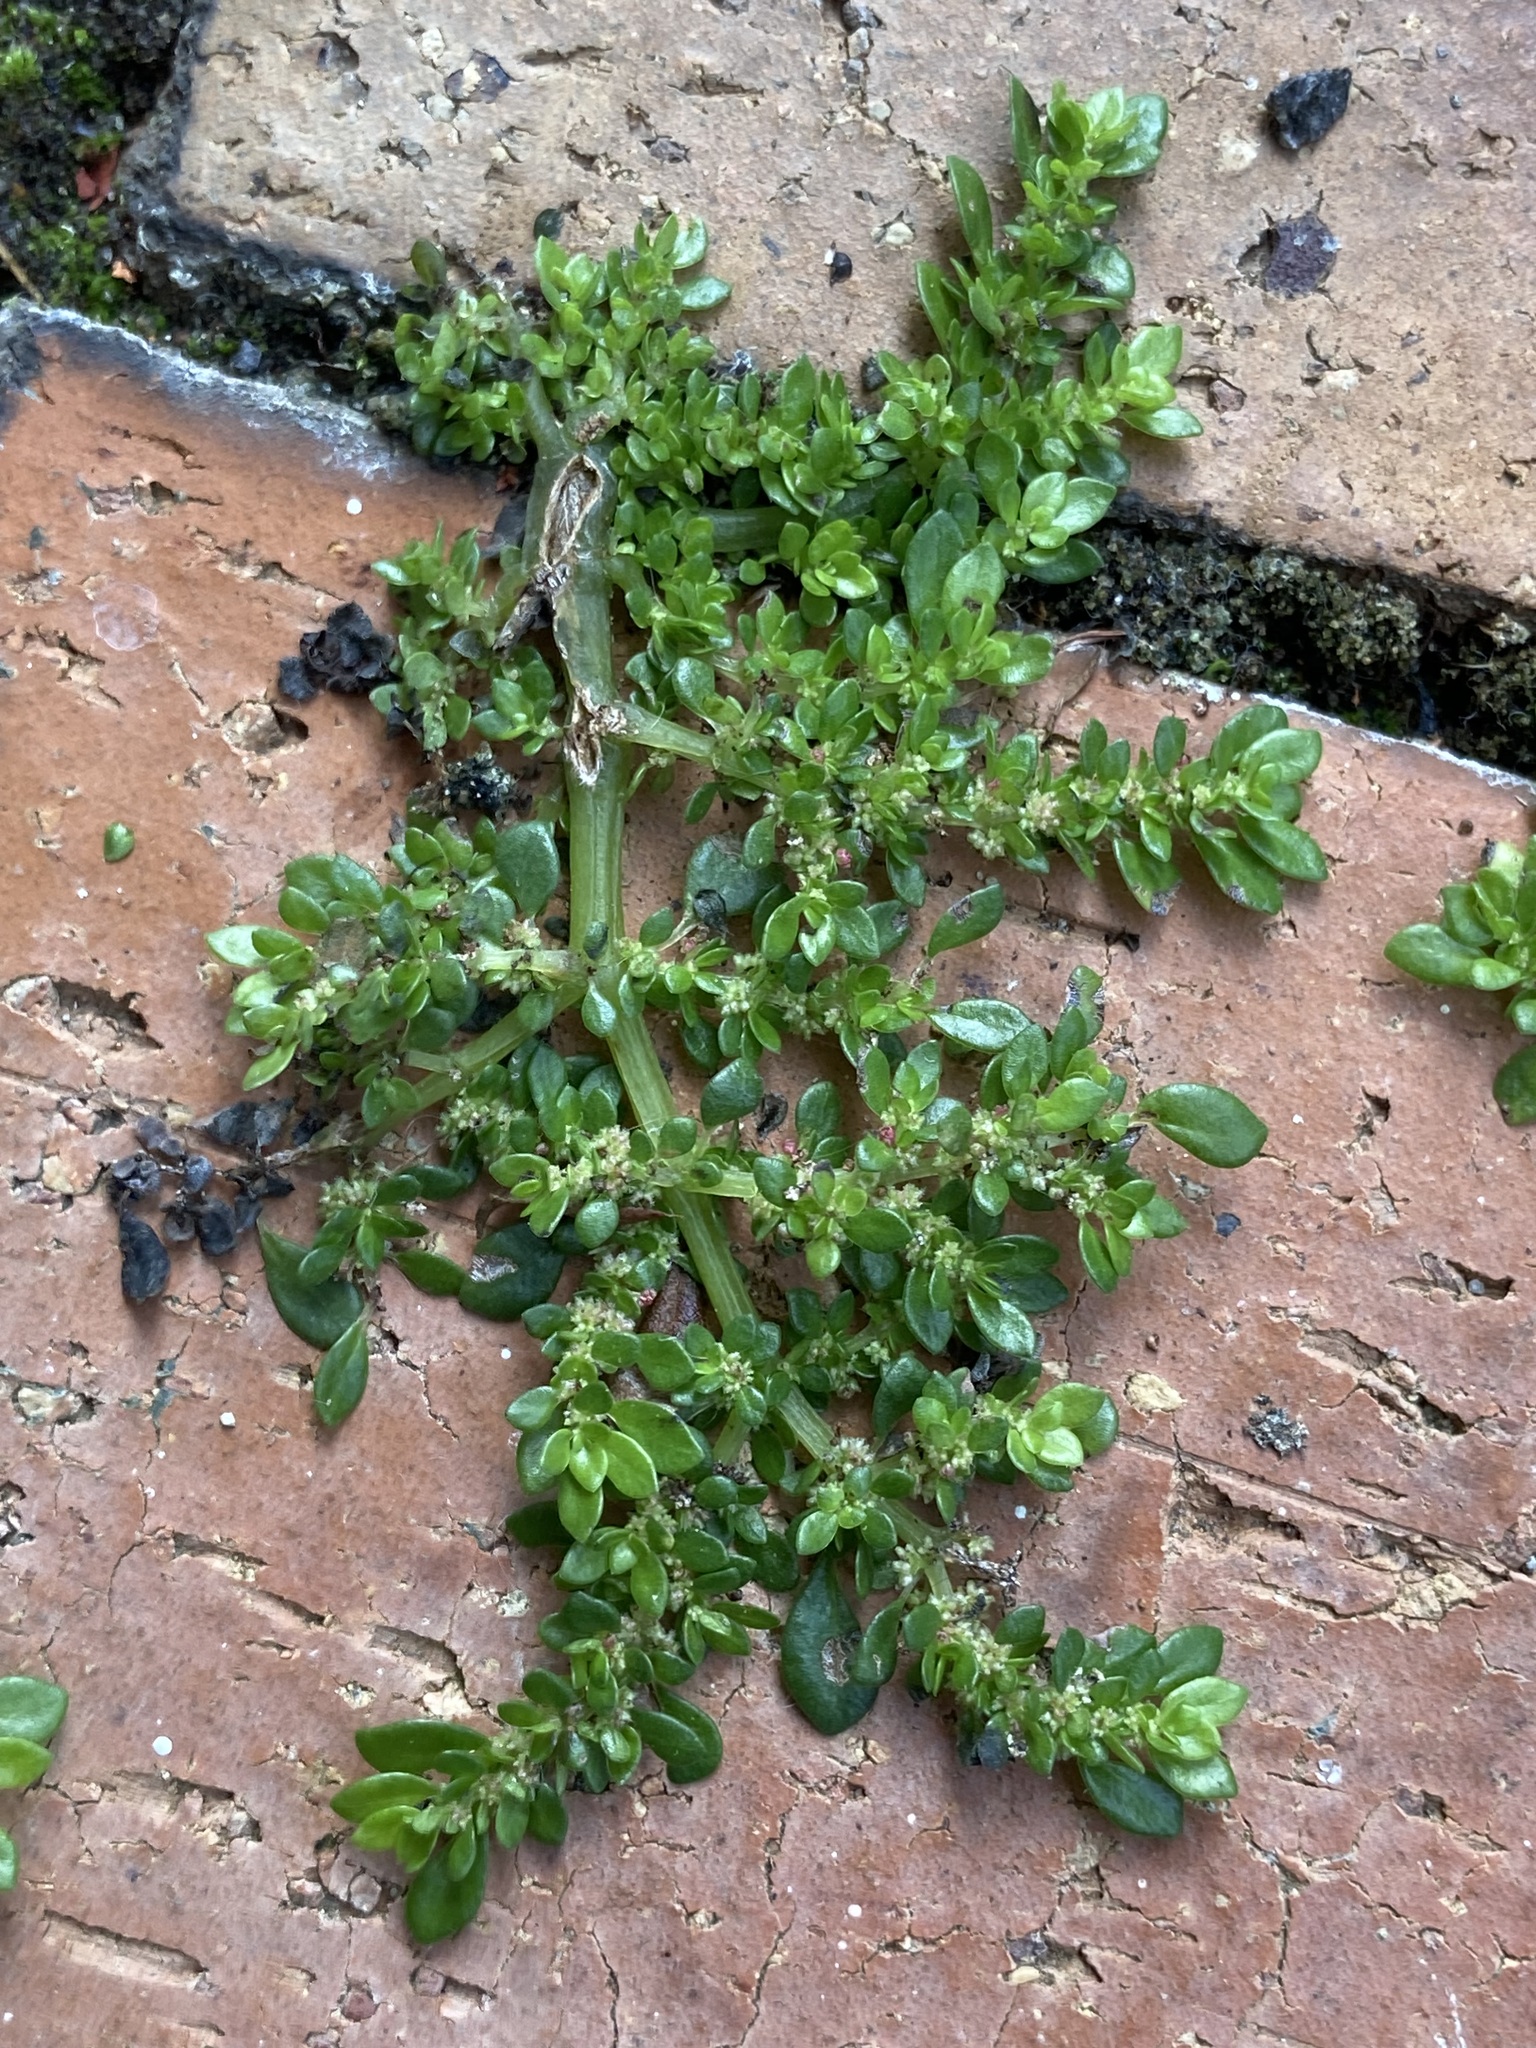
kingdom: Plantae
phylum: Tracheophyta
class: Magnoliopsida
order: Rosales
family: Urticaceae
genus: Pilea
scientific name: Pilea microphylla
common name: Artillery-plant
